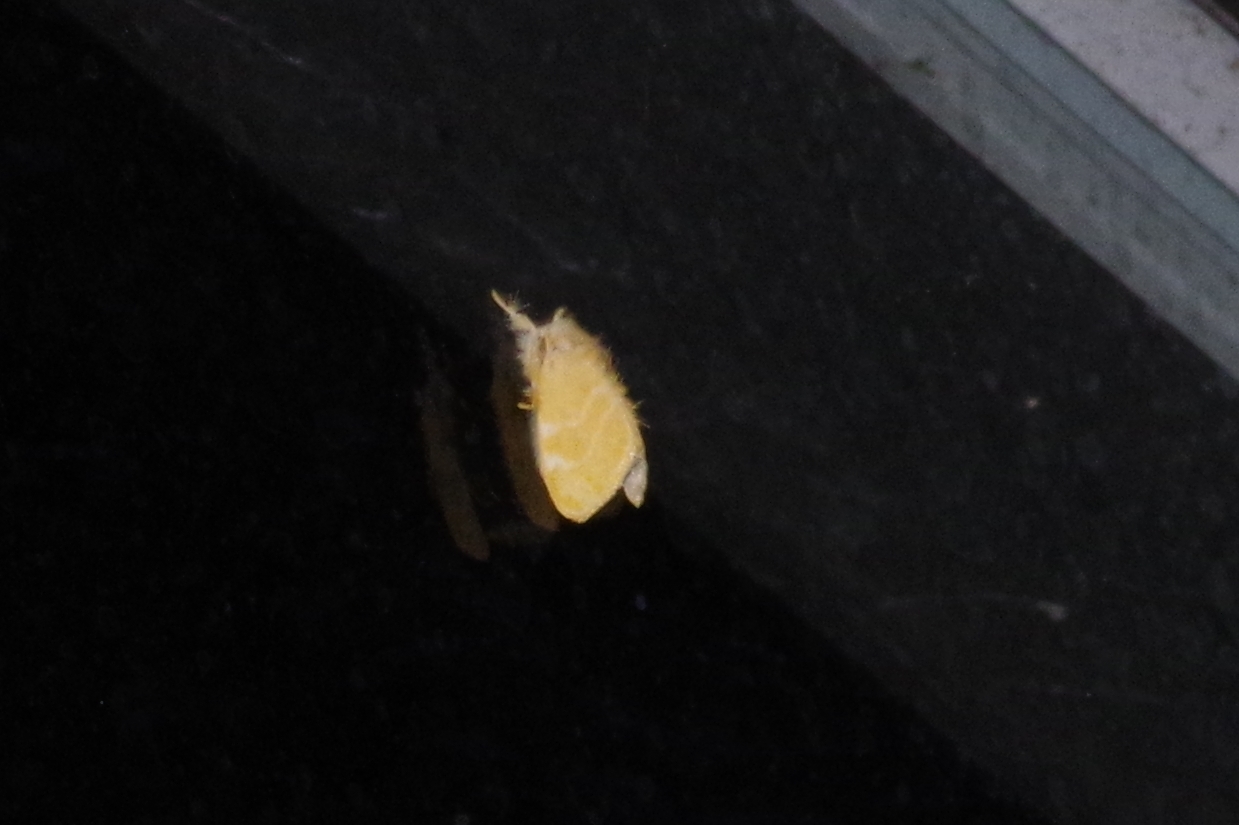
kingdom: Animalia
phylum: Arthropoda
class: Insecta
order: Lepidoptera
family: Erebidae
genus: Euproctis
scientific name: Euproctis taiwana
